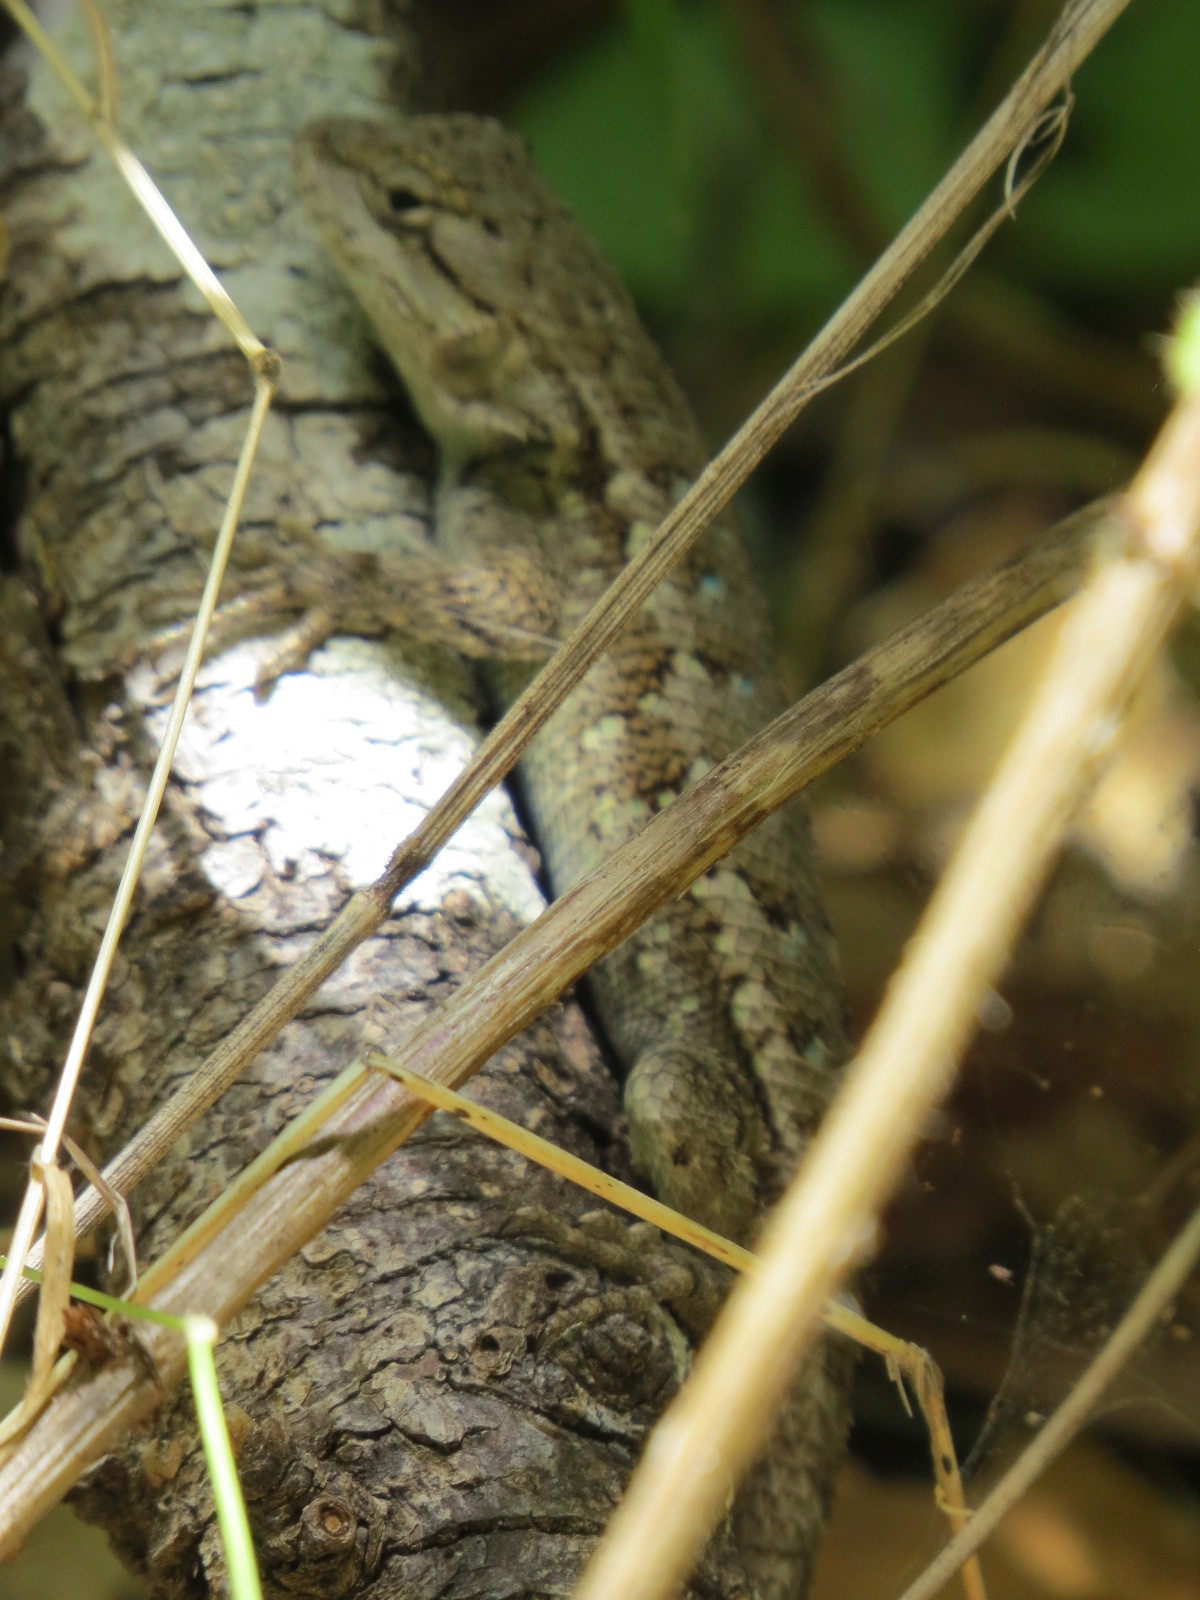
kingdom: Animalia
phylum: Chordata
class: Squamata
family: Phrynosomatidae
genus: Sceloporus
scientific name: Sceloporus occidentalis
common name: Western fence lizard
